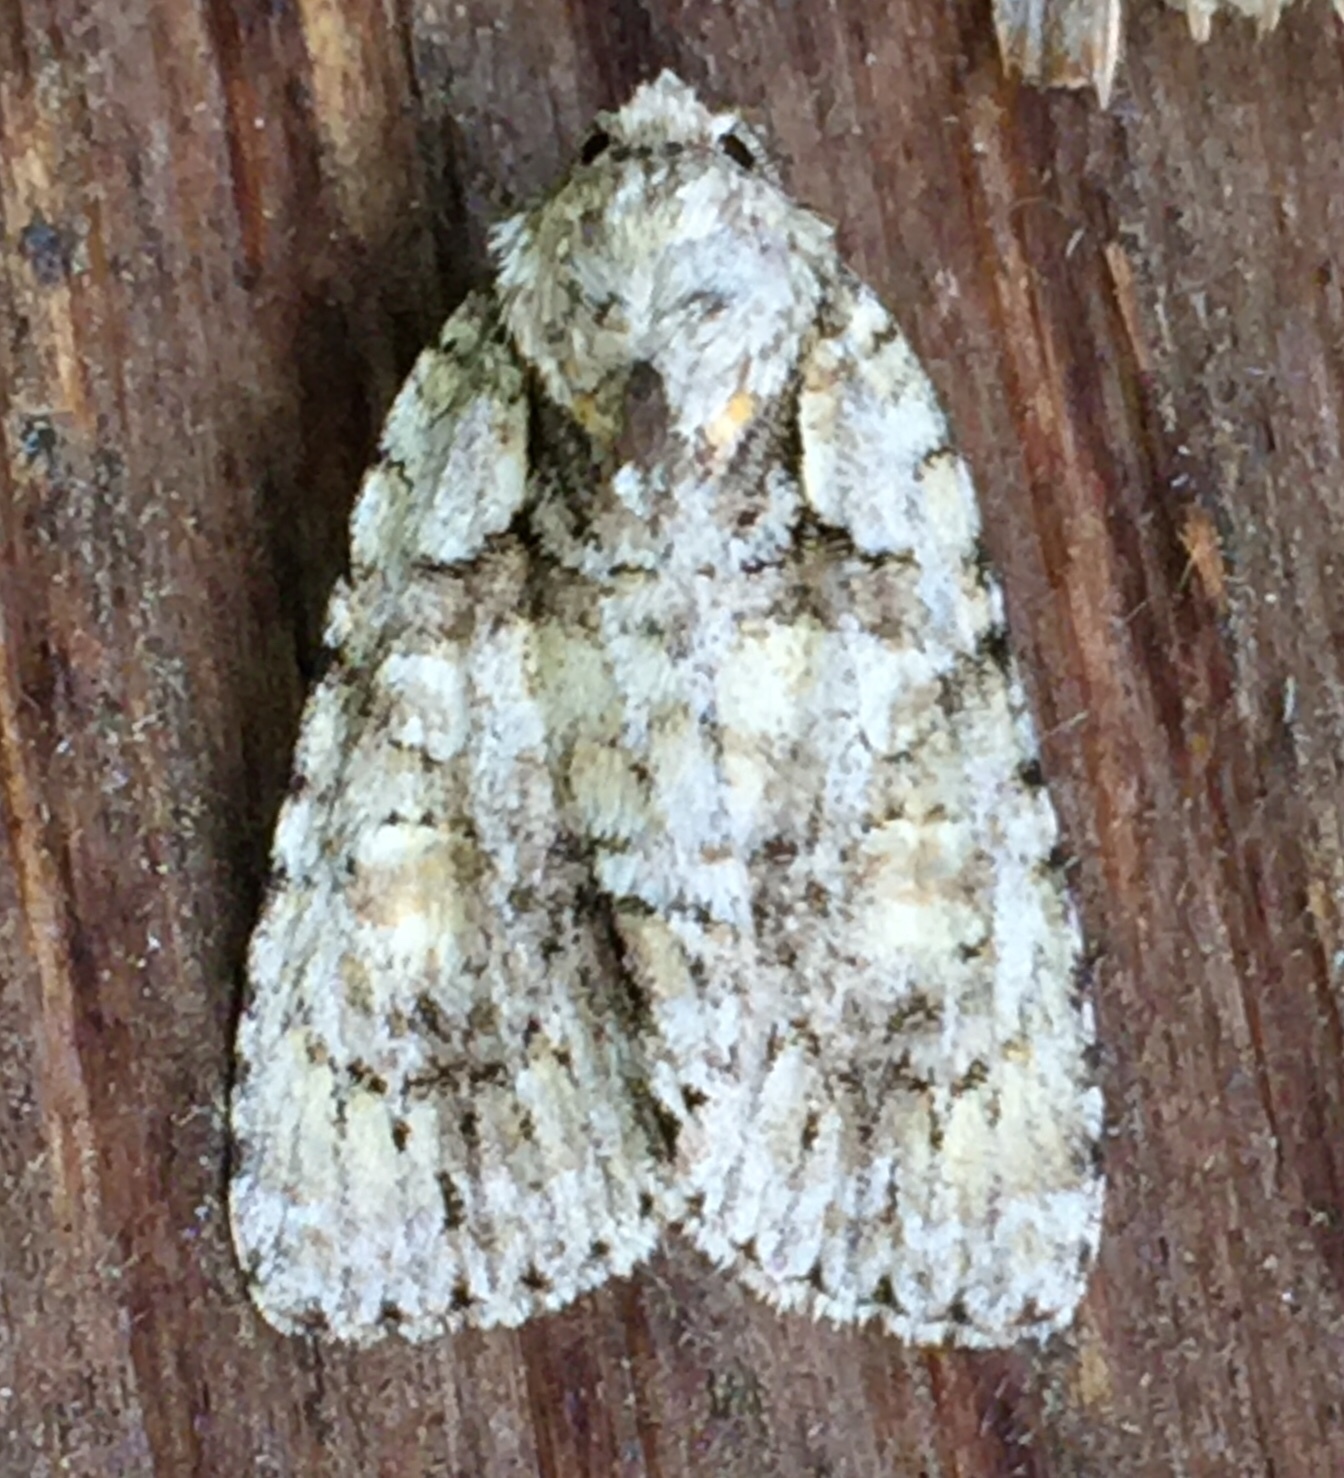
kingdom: Animalia
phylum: Arthropoda
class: Insecta
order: Lepidoptera
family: Noctuidae
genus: Acronicta
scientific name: Acronicta ovata
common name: Epauleted oak dagger
